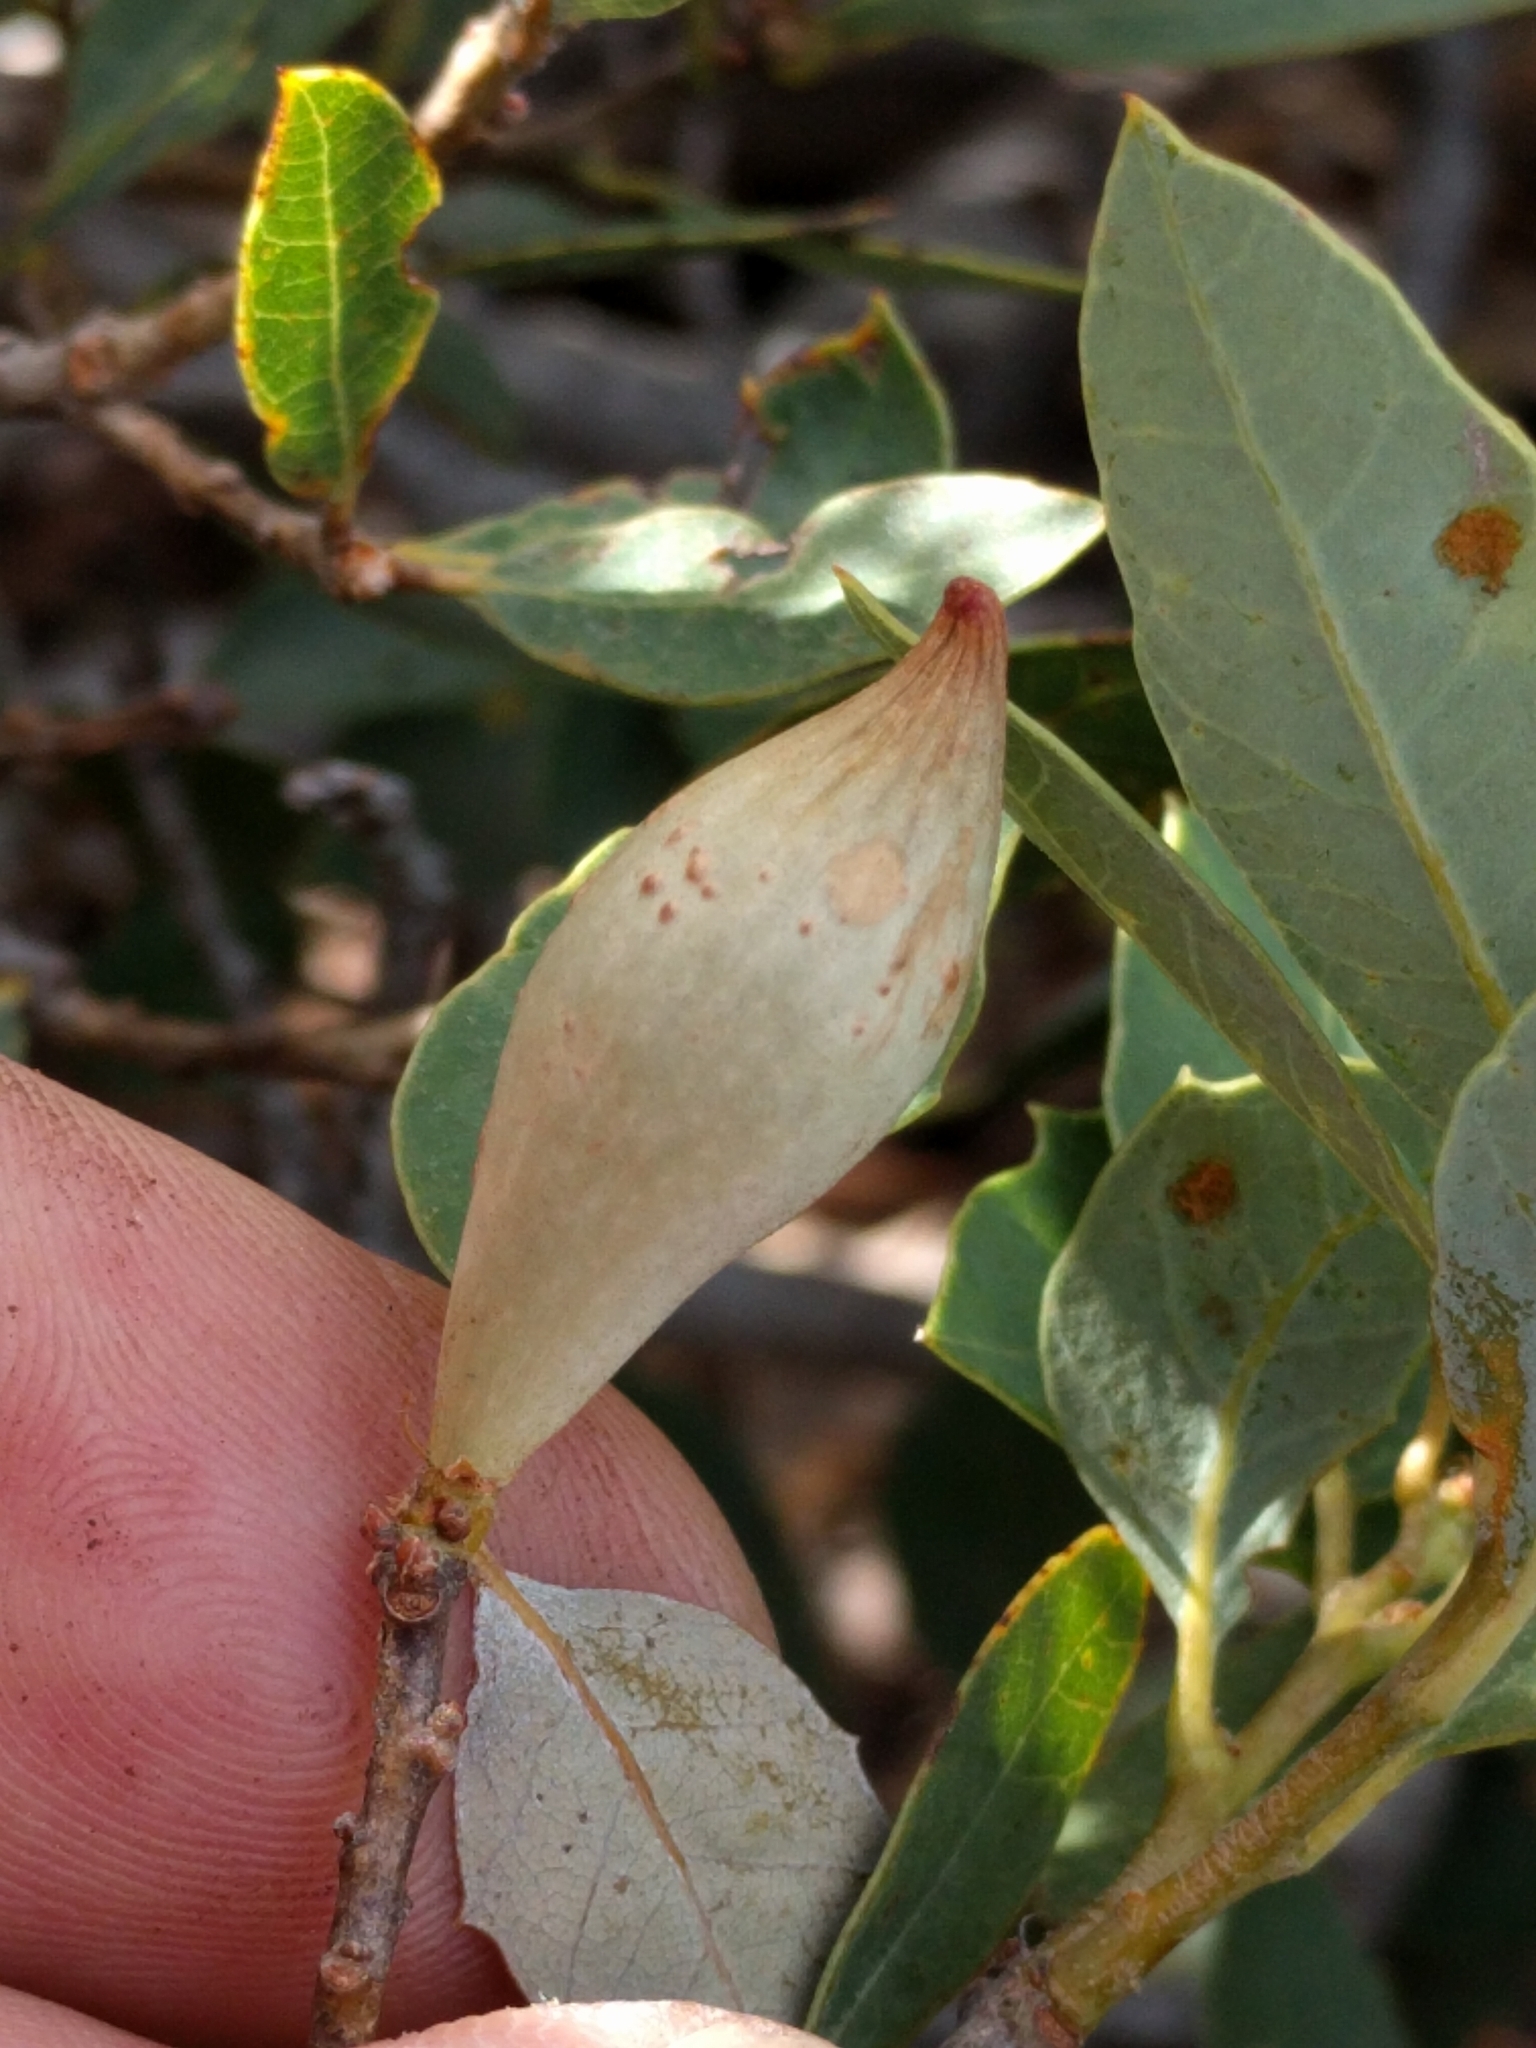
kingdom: Animalia
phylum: Arthropoda
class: Insecta
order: Hymenoptera
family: Cynipidae
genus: Heteroecus
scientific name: Heteroecus pacificus
